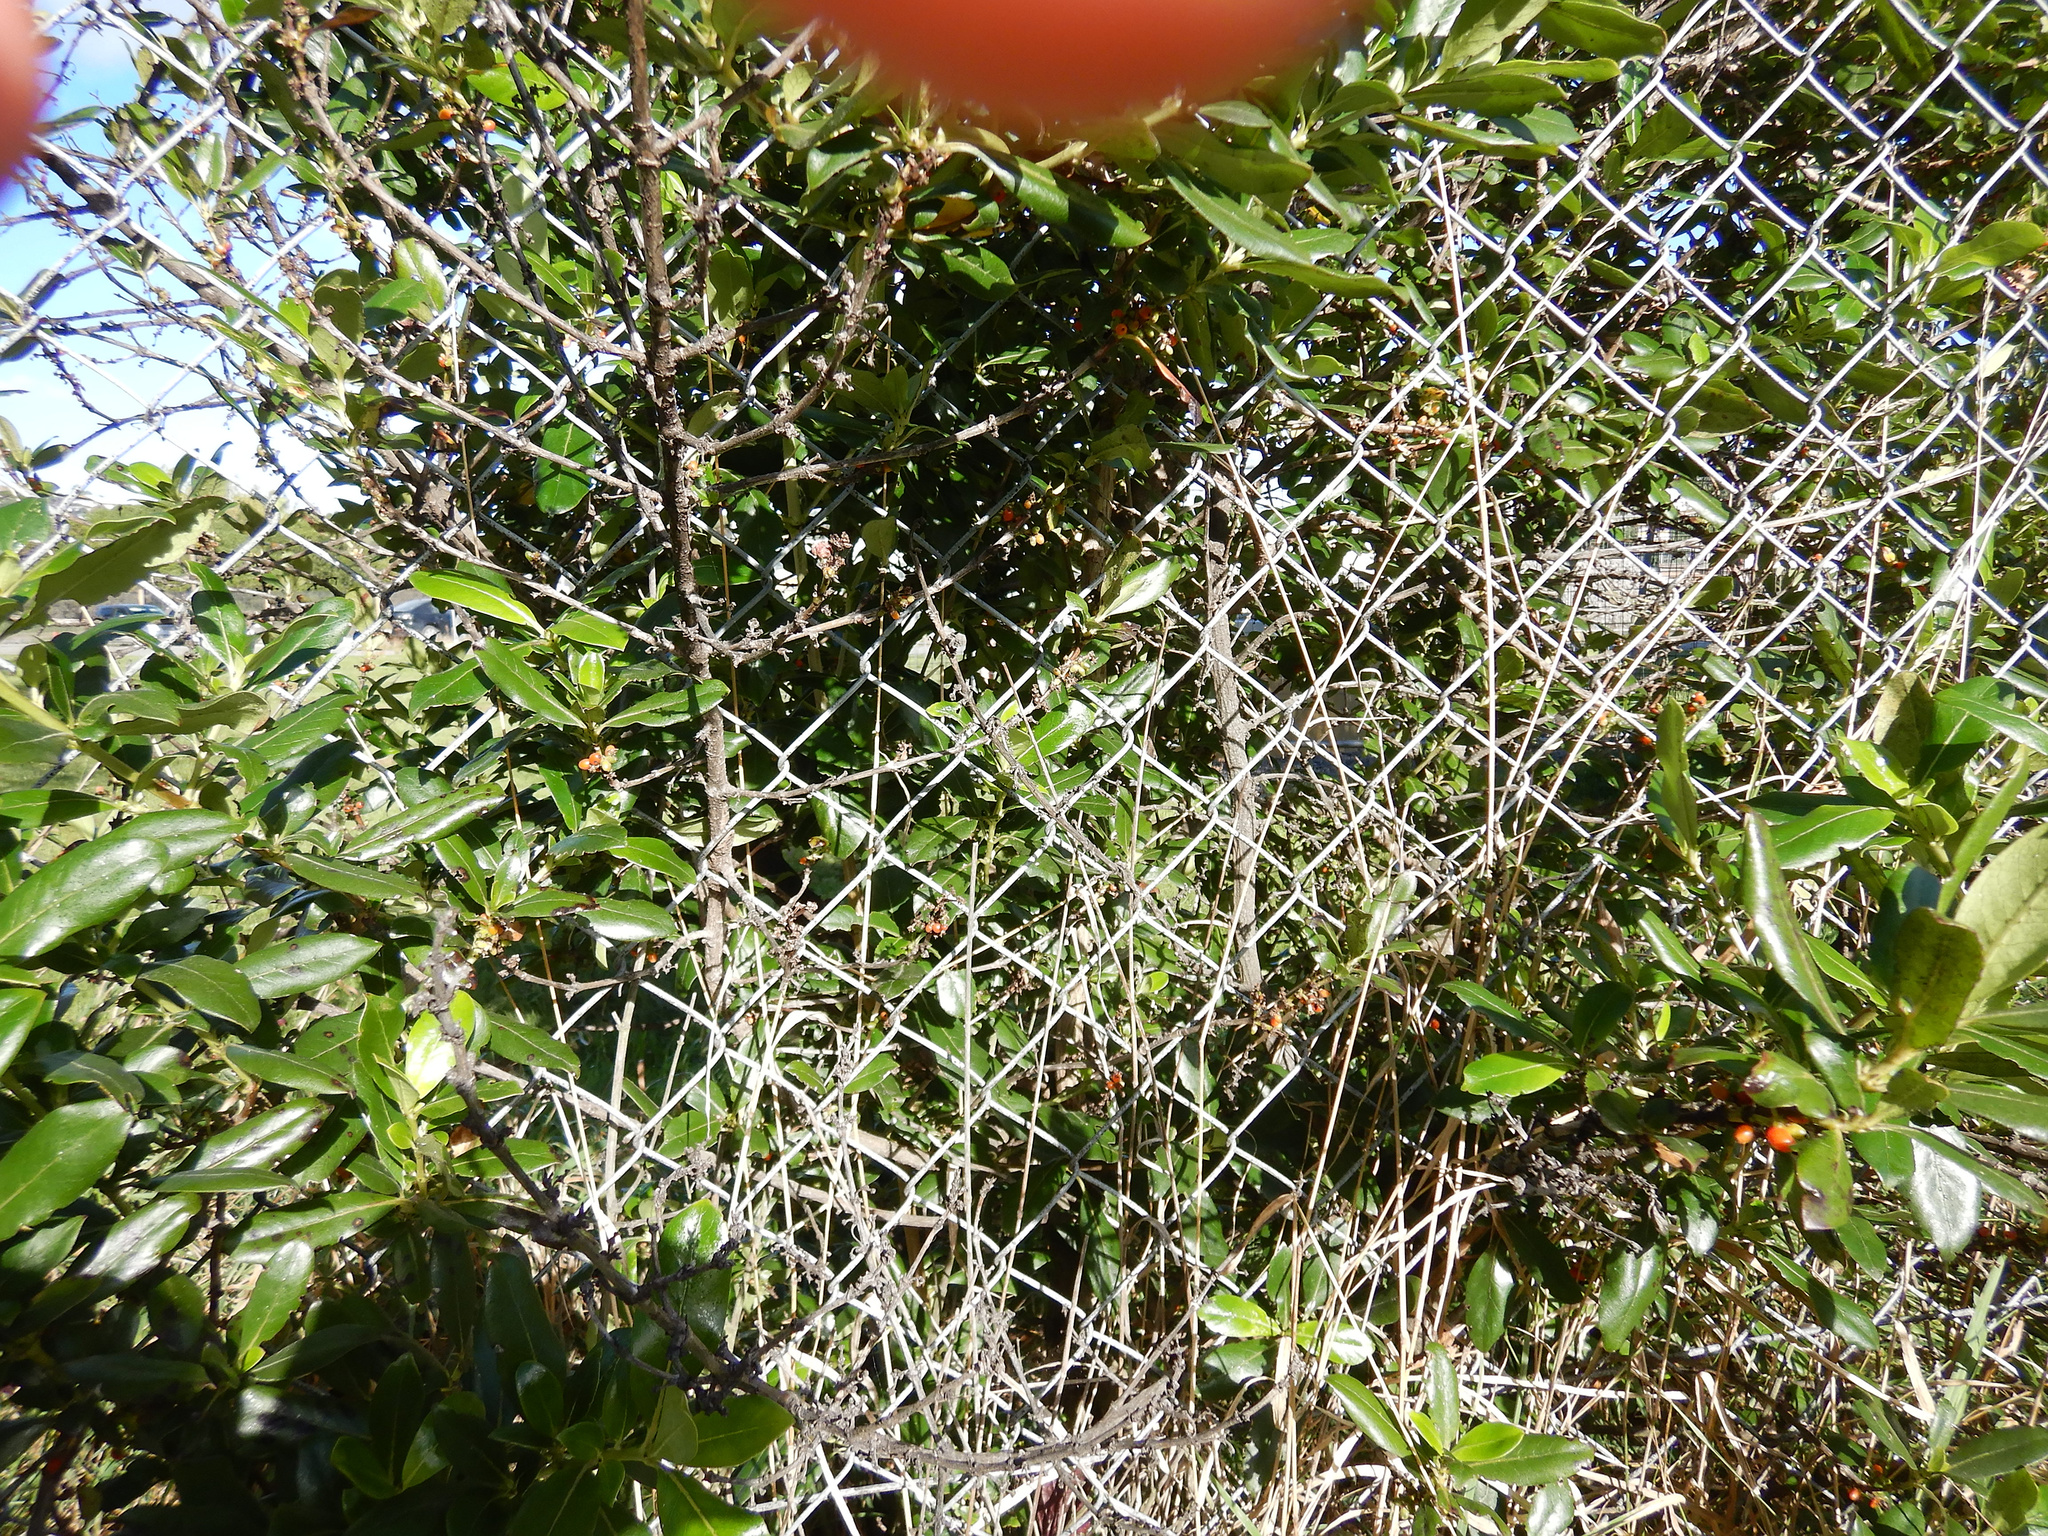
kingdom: Plantae
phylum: Tracheophyta
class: Magnoliopsida
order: Gentianales
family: Rubiaceae
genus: Coprosma
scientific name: Coprosma robusta
